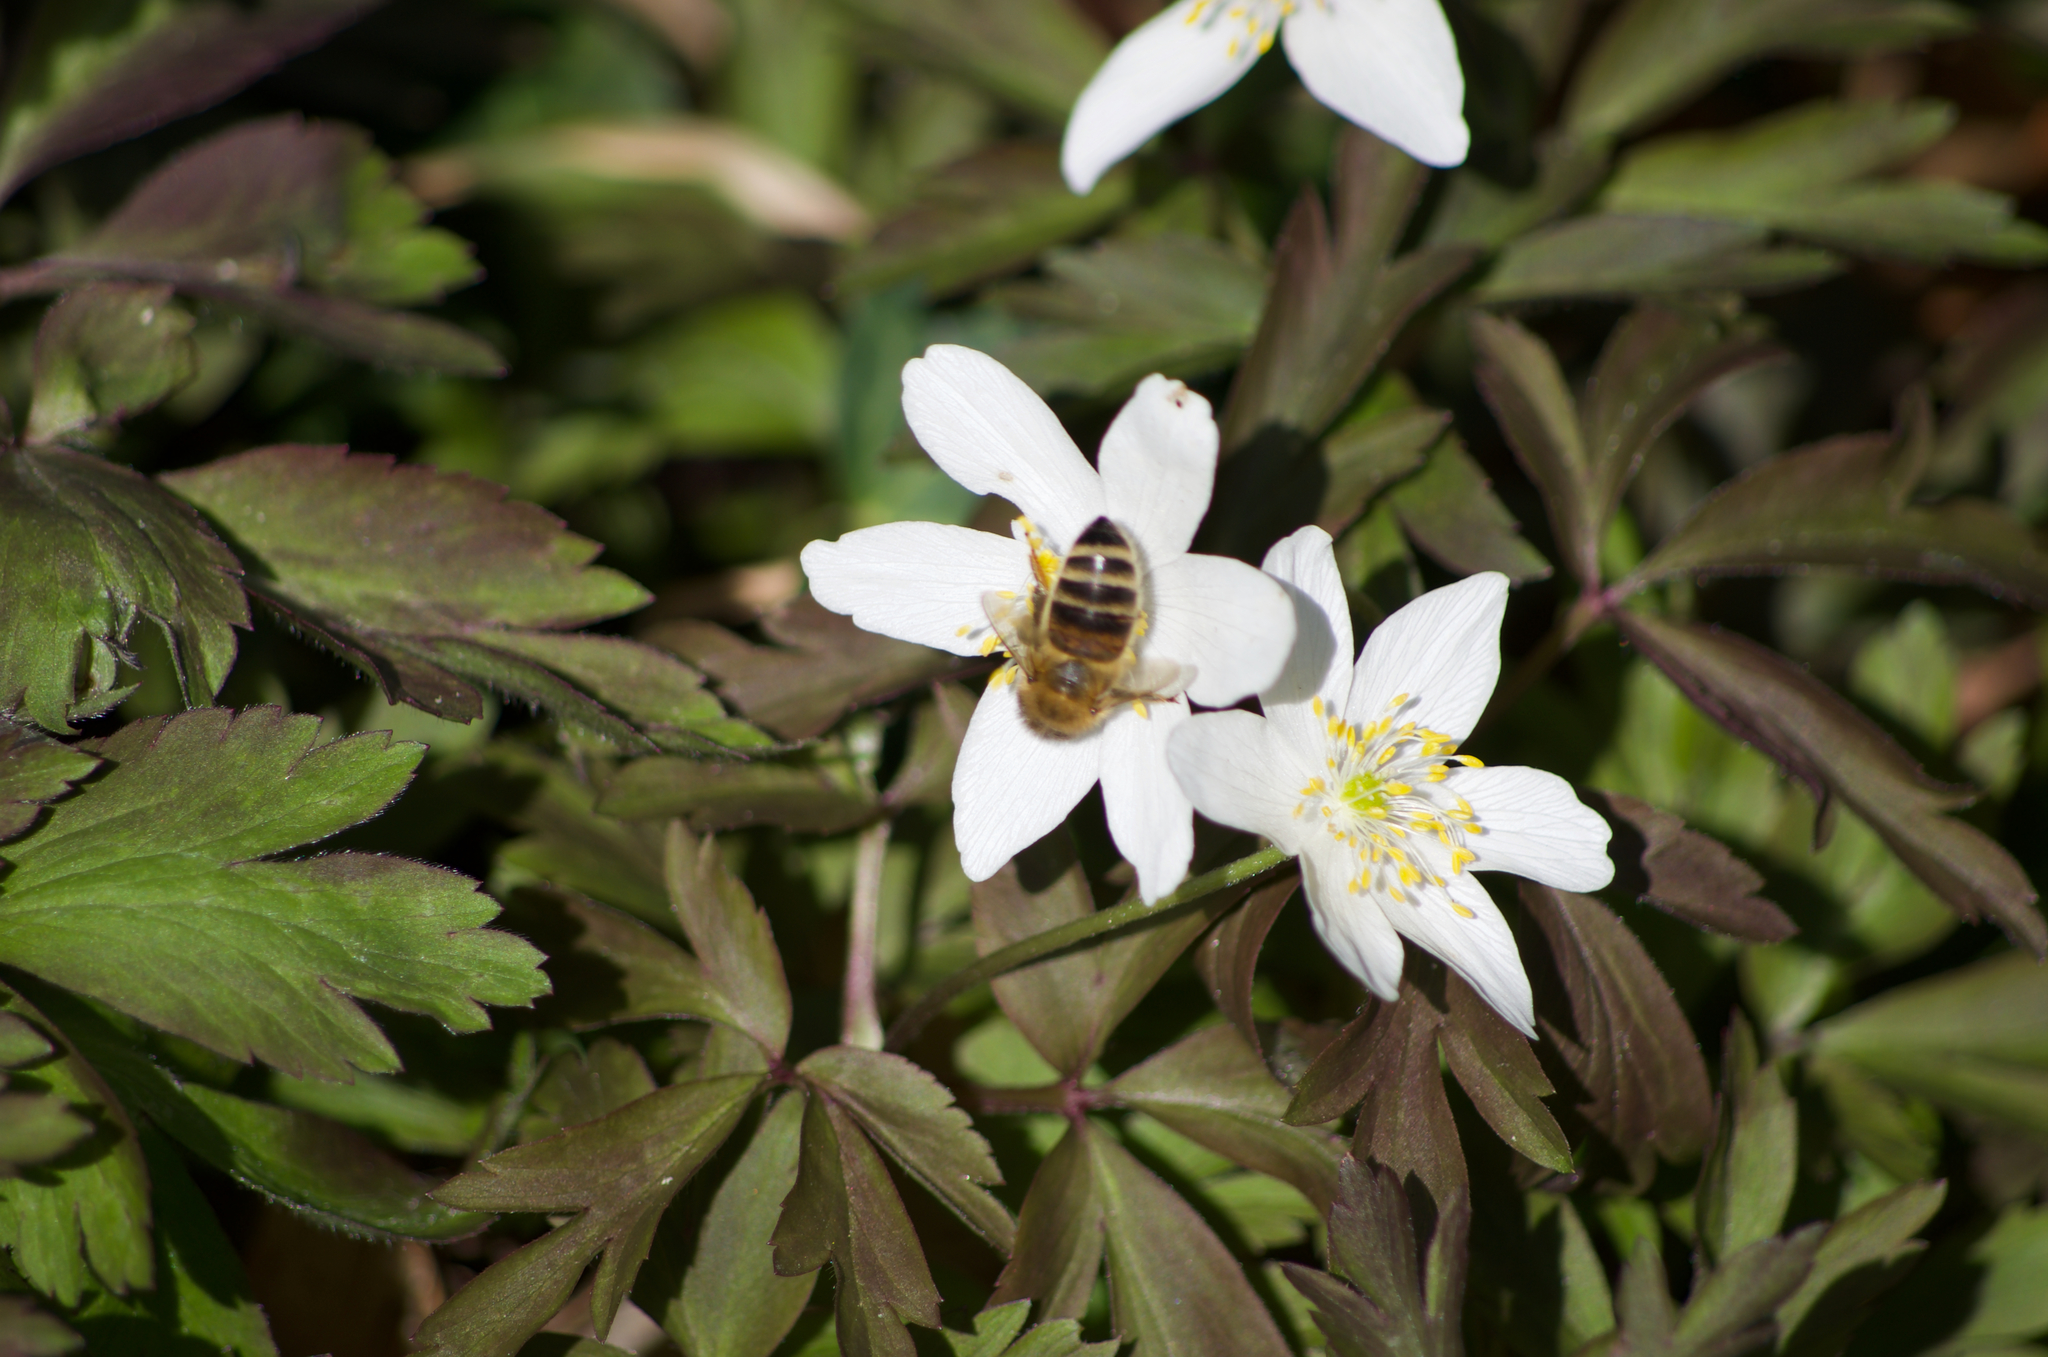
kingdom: Animalia
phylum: Arthropoda
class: Insecta
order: Hymenoptera
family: Apidae
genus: Apis
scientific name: Apis mellifera
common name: Honey bee
